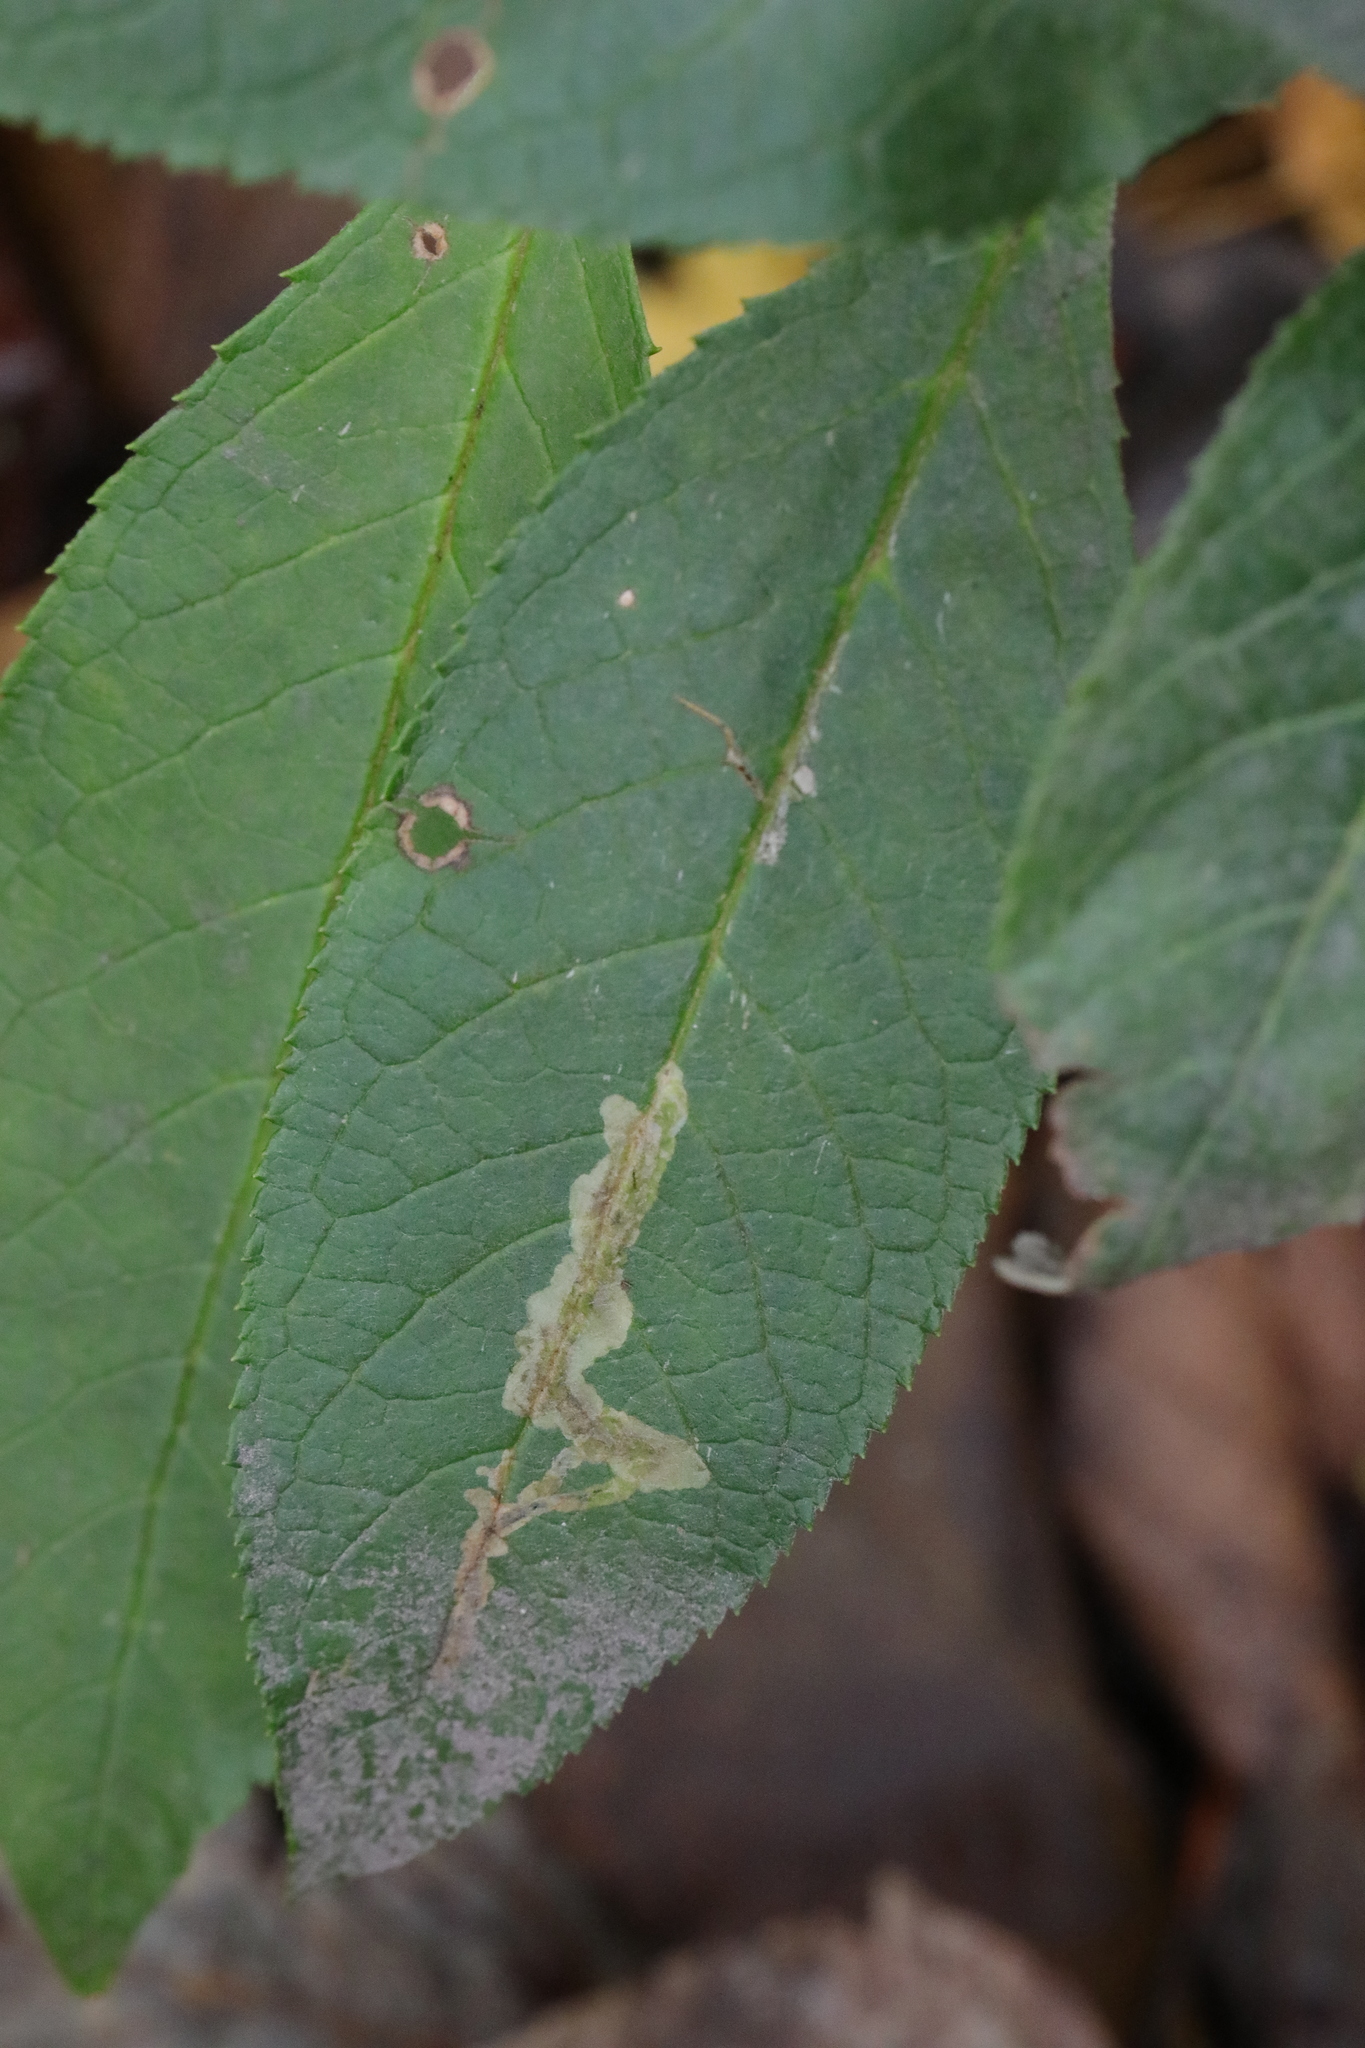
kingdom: Animalia
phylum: Arthropoda
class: Insecta
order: Diptera
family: Agromyzidae
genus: Amauromyza
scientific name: Amauromyza verbasci
